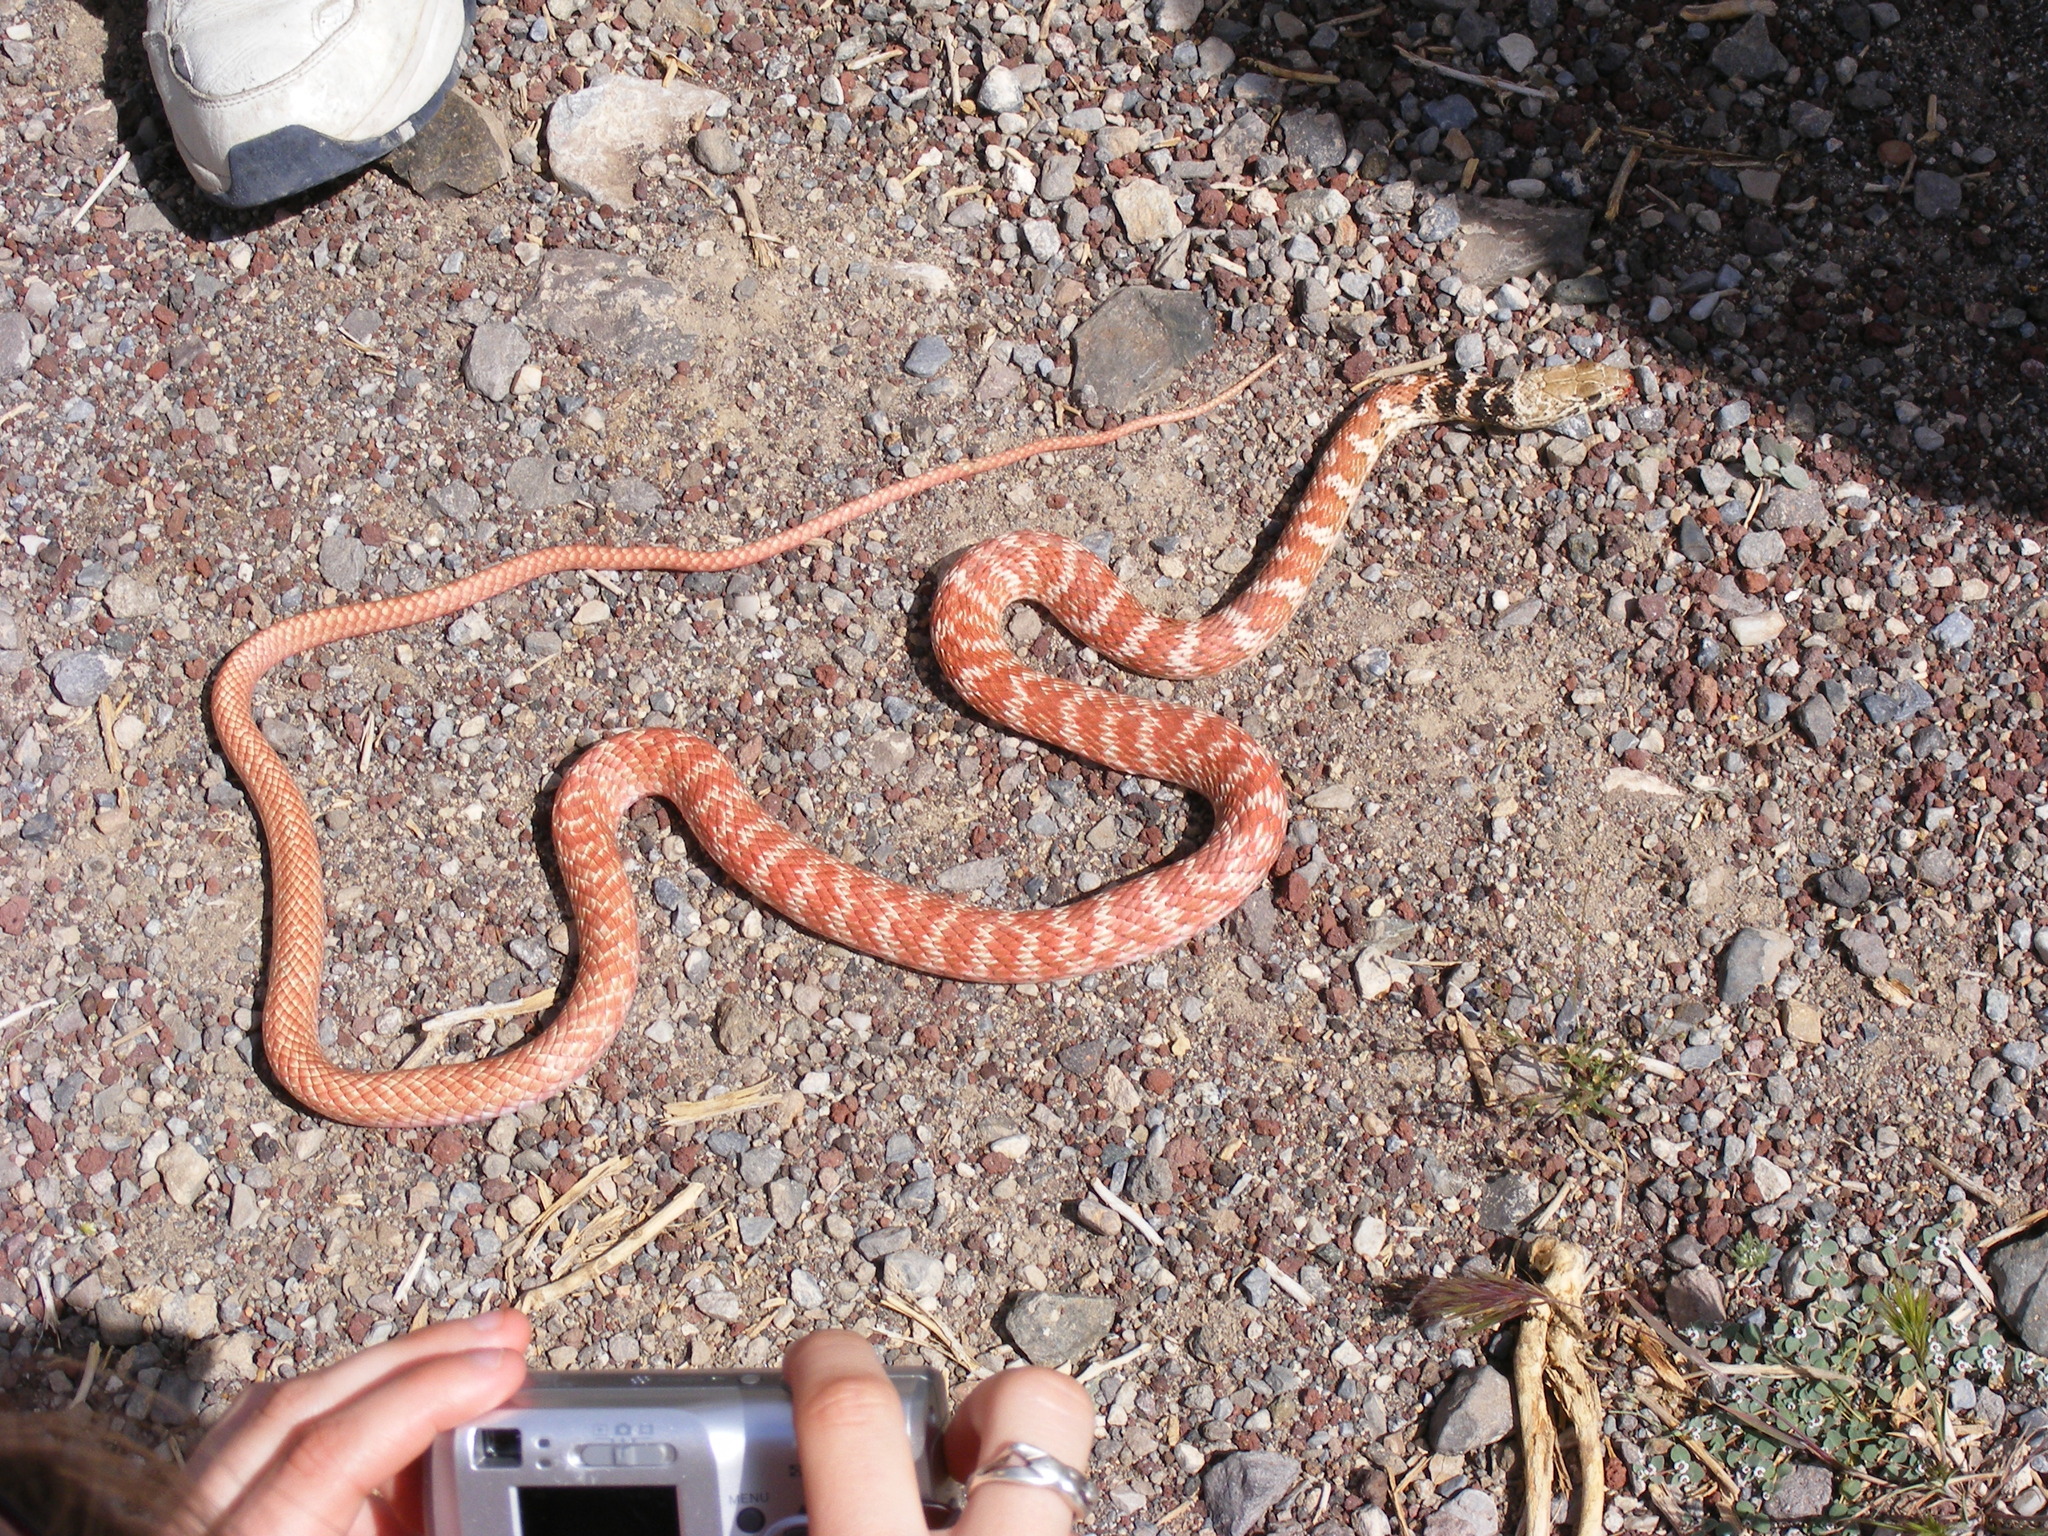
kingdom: Animalia
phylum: Chordata
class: Squamata
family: Colubridae
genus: Masticophis
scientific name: Masticophis flagellum
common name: Coachwhip
